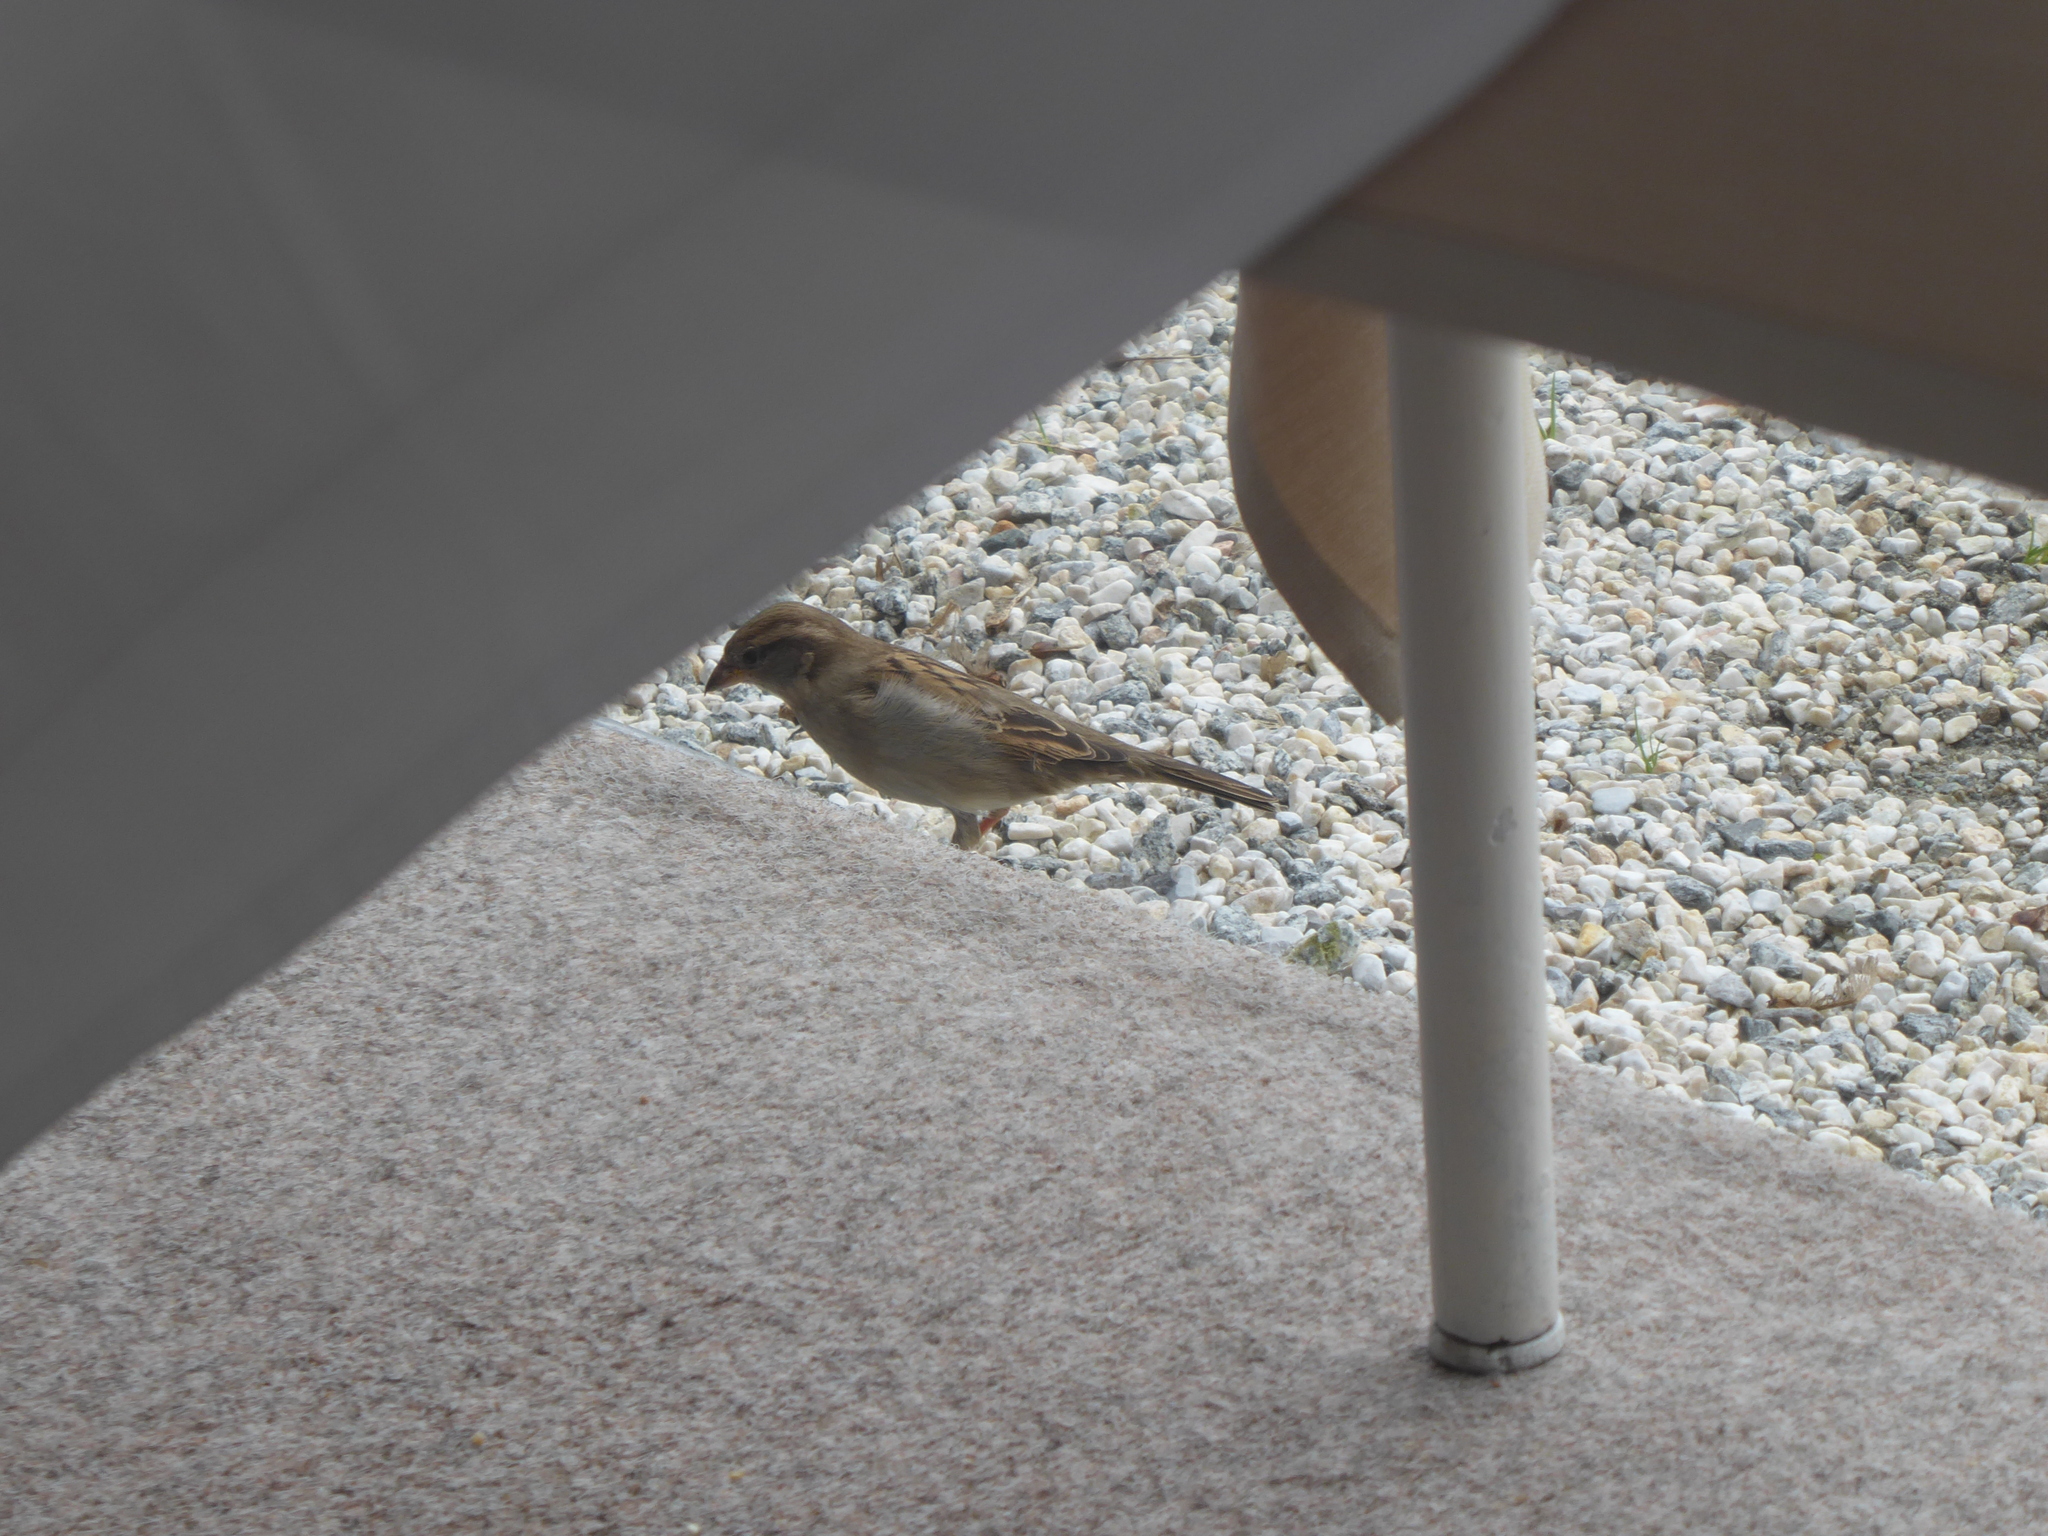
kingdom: Animalia
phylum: Chordata
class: Aves
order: Passeriformes
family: Passeridae
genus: Passer
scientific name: Passer domesticus
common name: House sparrow
